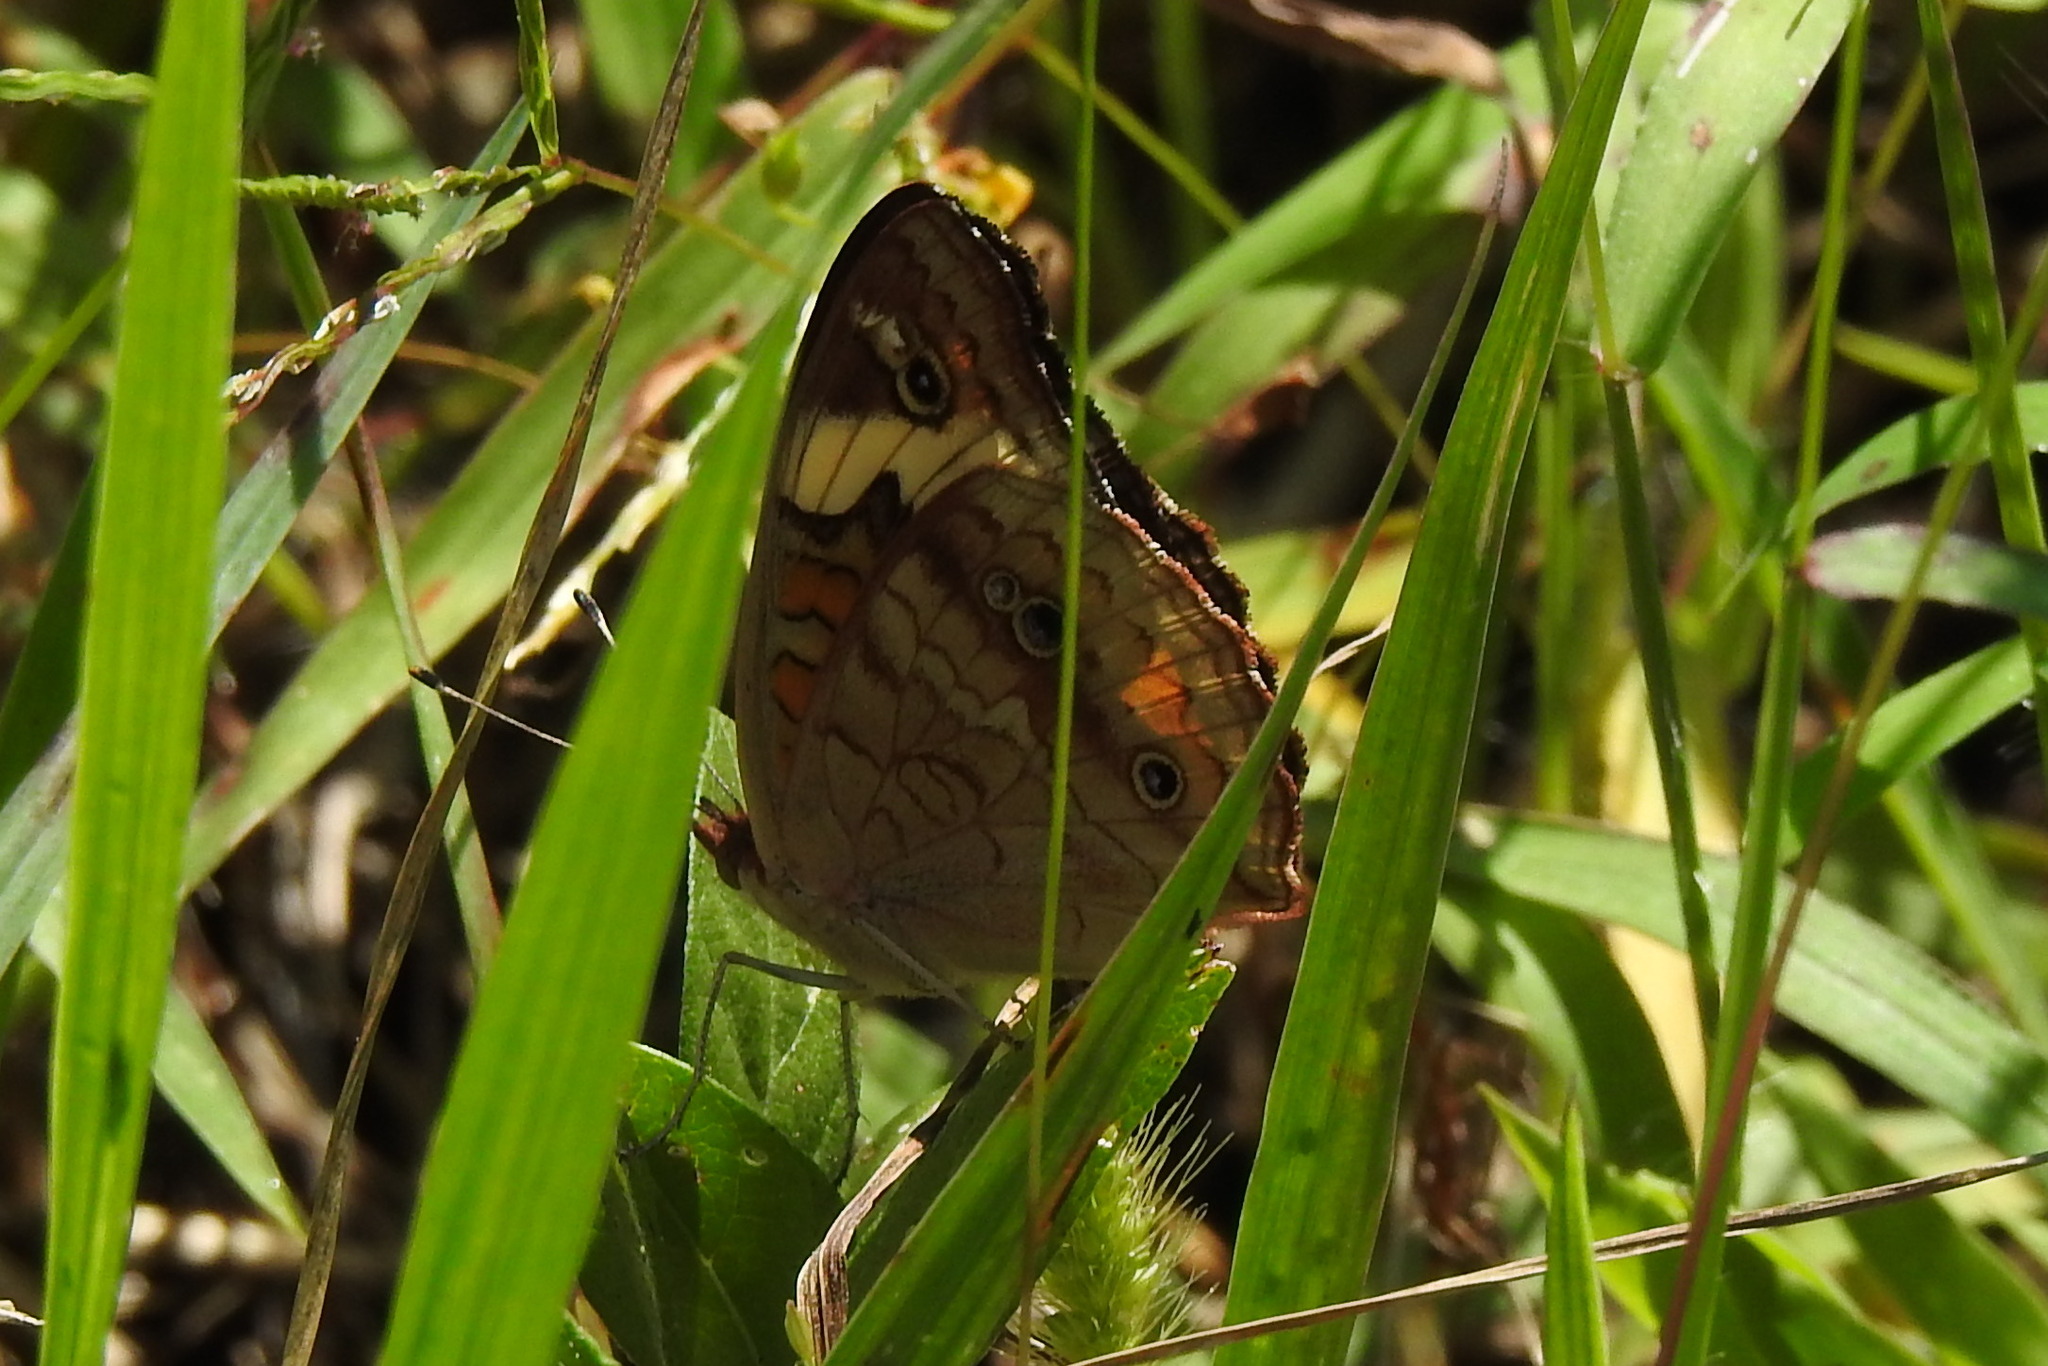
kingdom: Animalia
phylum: Arthropoda
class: Insecta
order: Lepidoptera
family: Nymphalidae
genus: Junonia
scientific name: Junonia coenia
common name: Common buckeye
